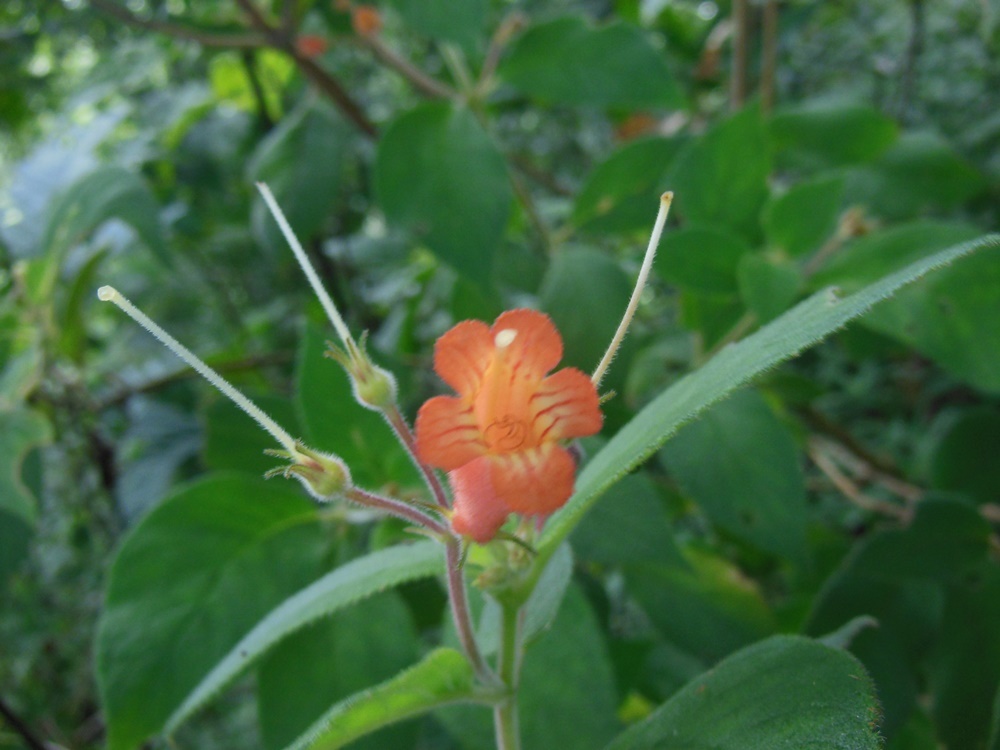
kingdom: Plantae
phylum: Tracheophyta
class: Magnoliopsida
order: Lamiales
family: Gesneriaceae
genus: Moussonia
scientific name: Moussonia deppeana
